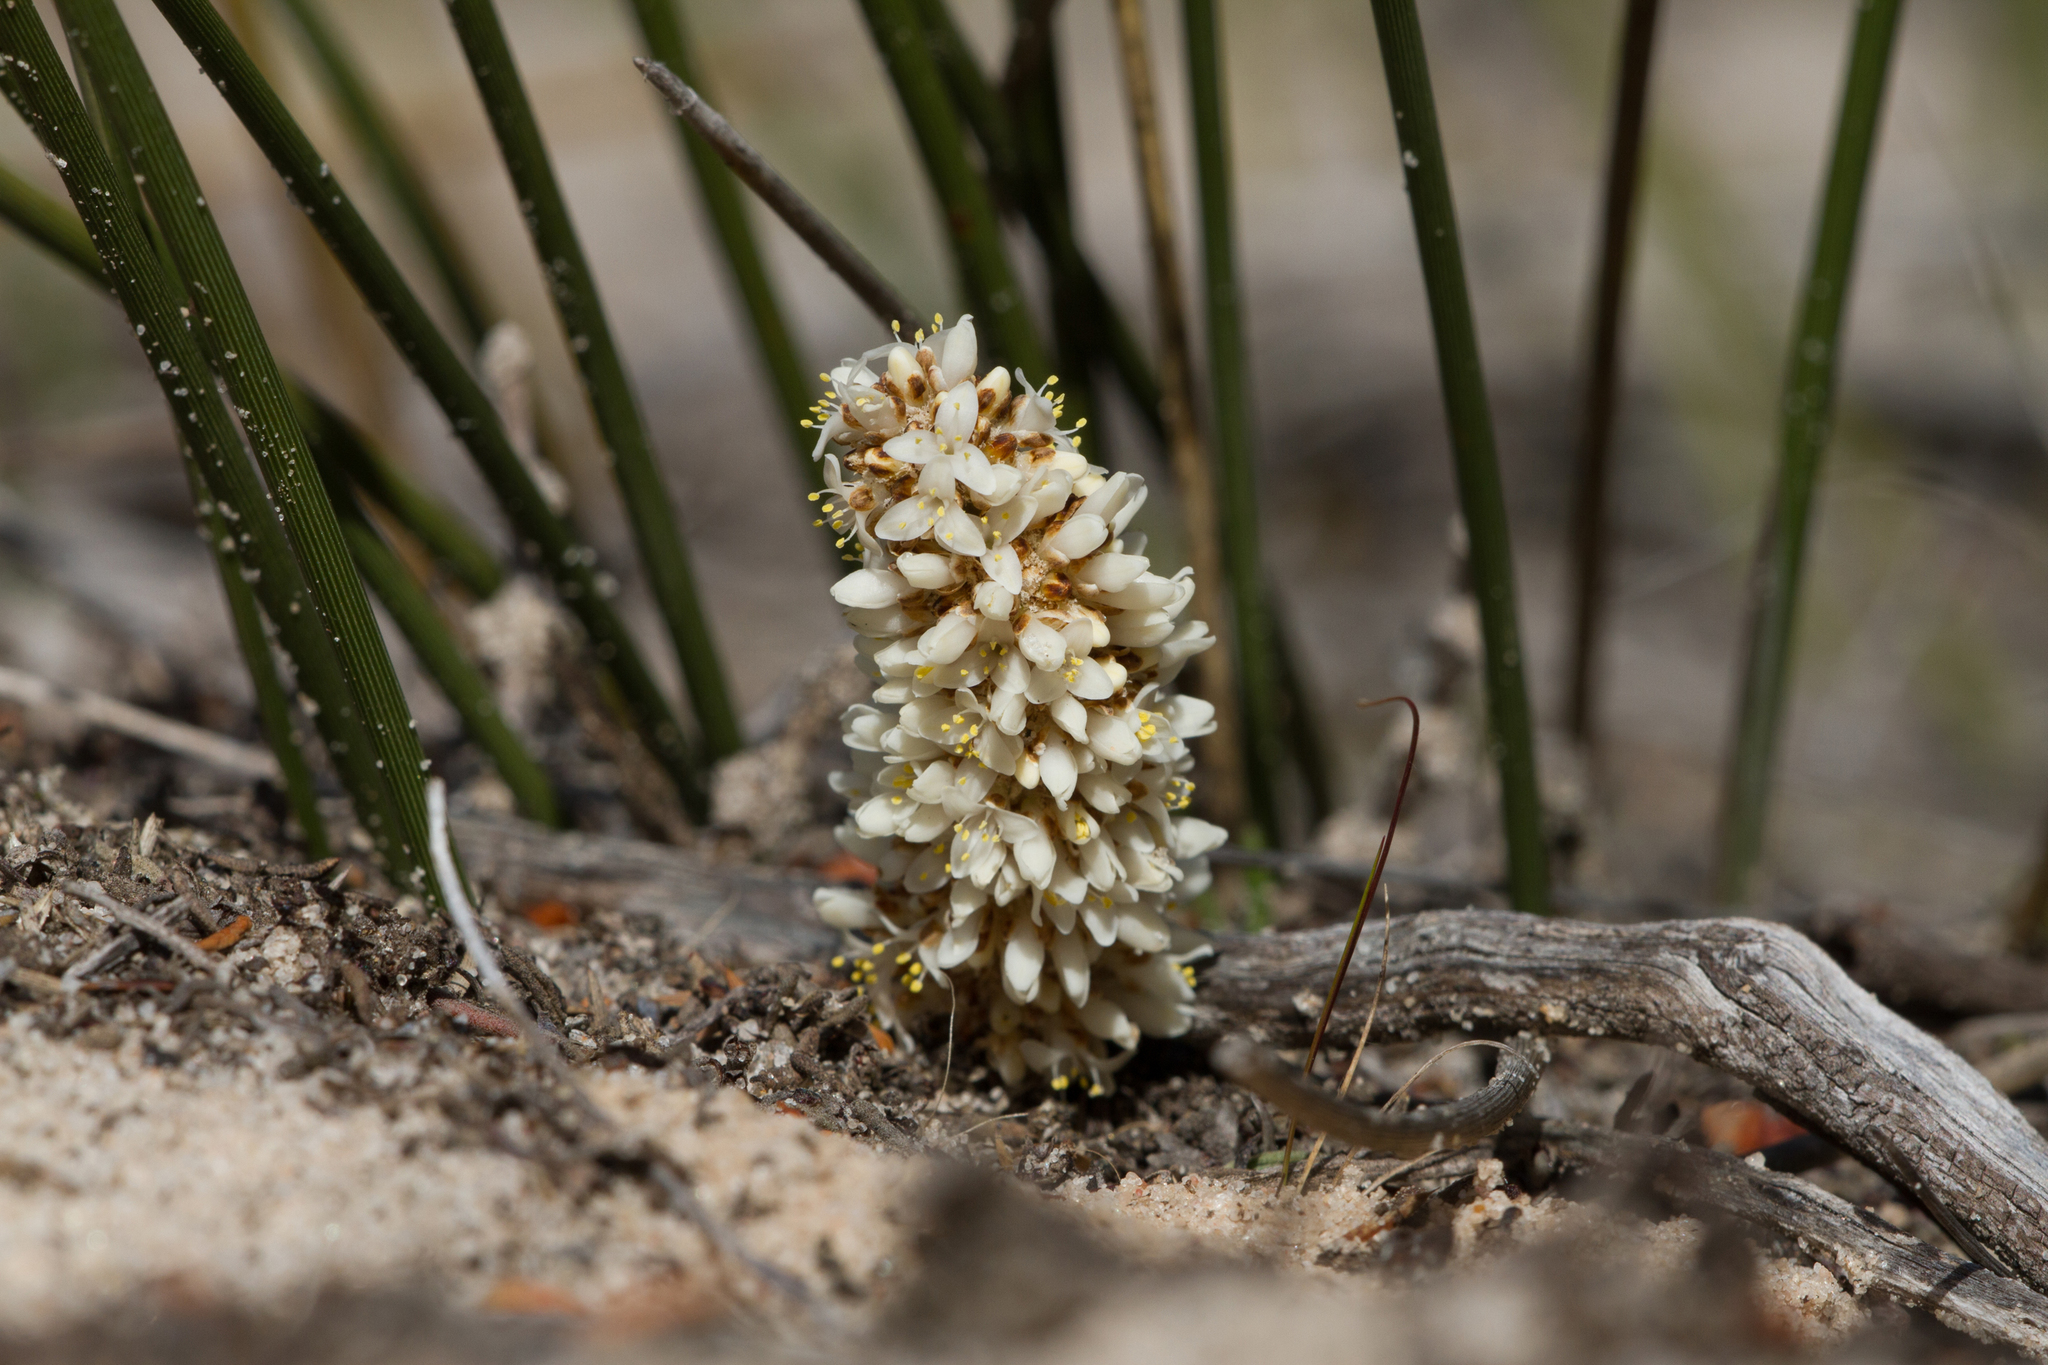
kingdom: Plantae
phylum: Tracheophyta
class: Liliopsida
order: Asparagales
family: Asparagaceae
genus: Lomandra
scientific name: Lomandra juncea
